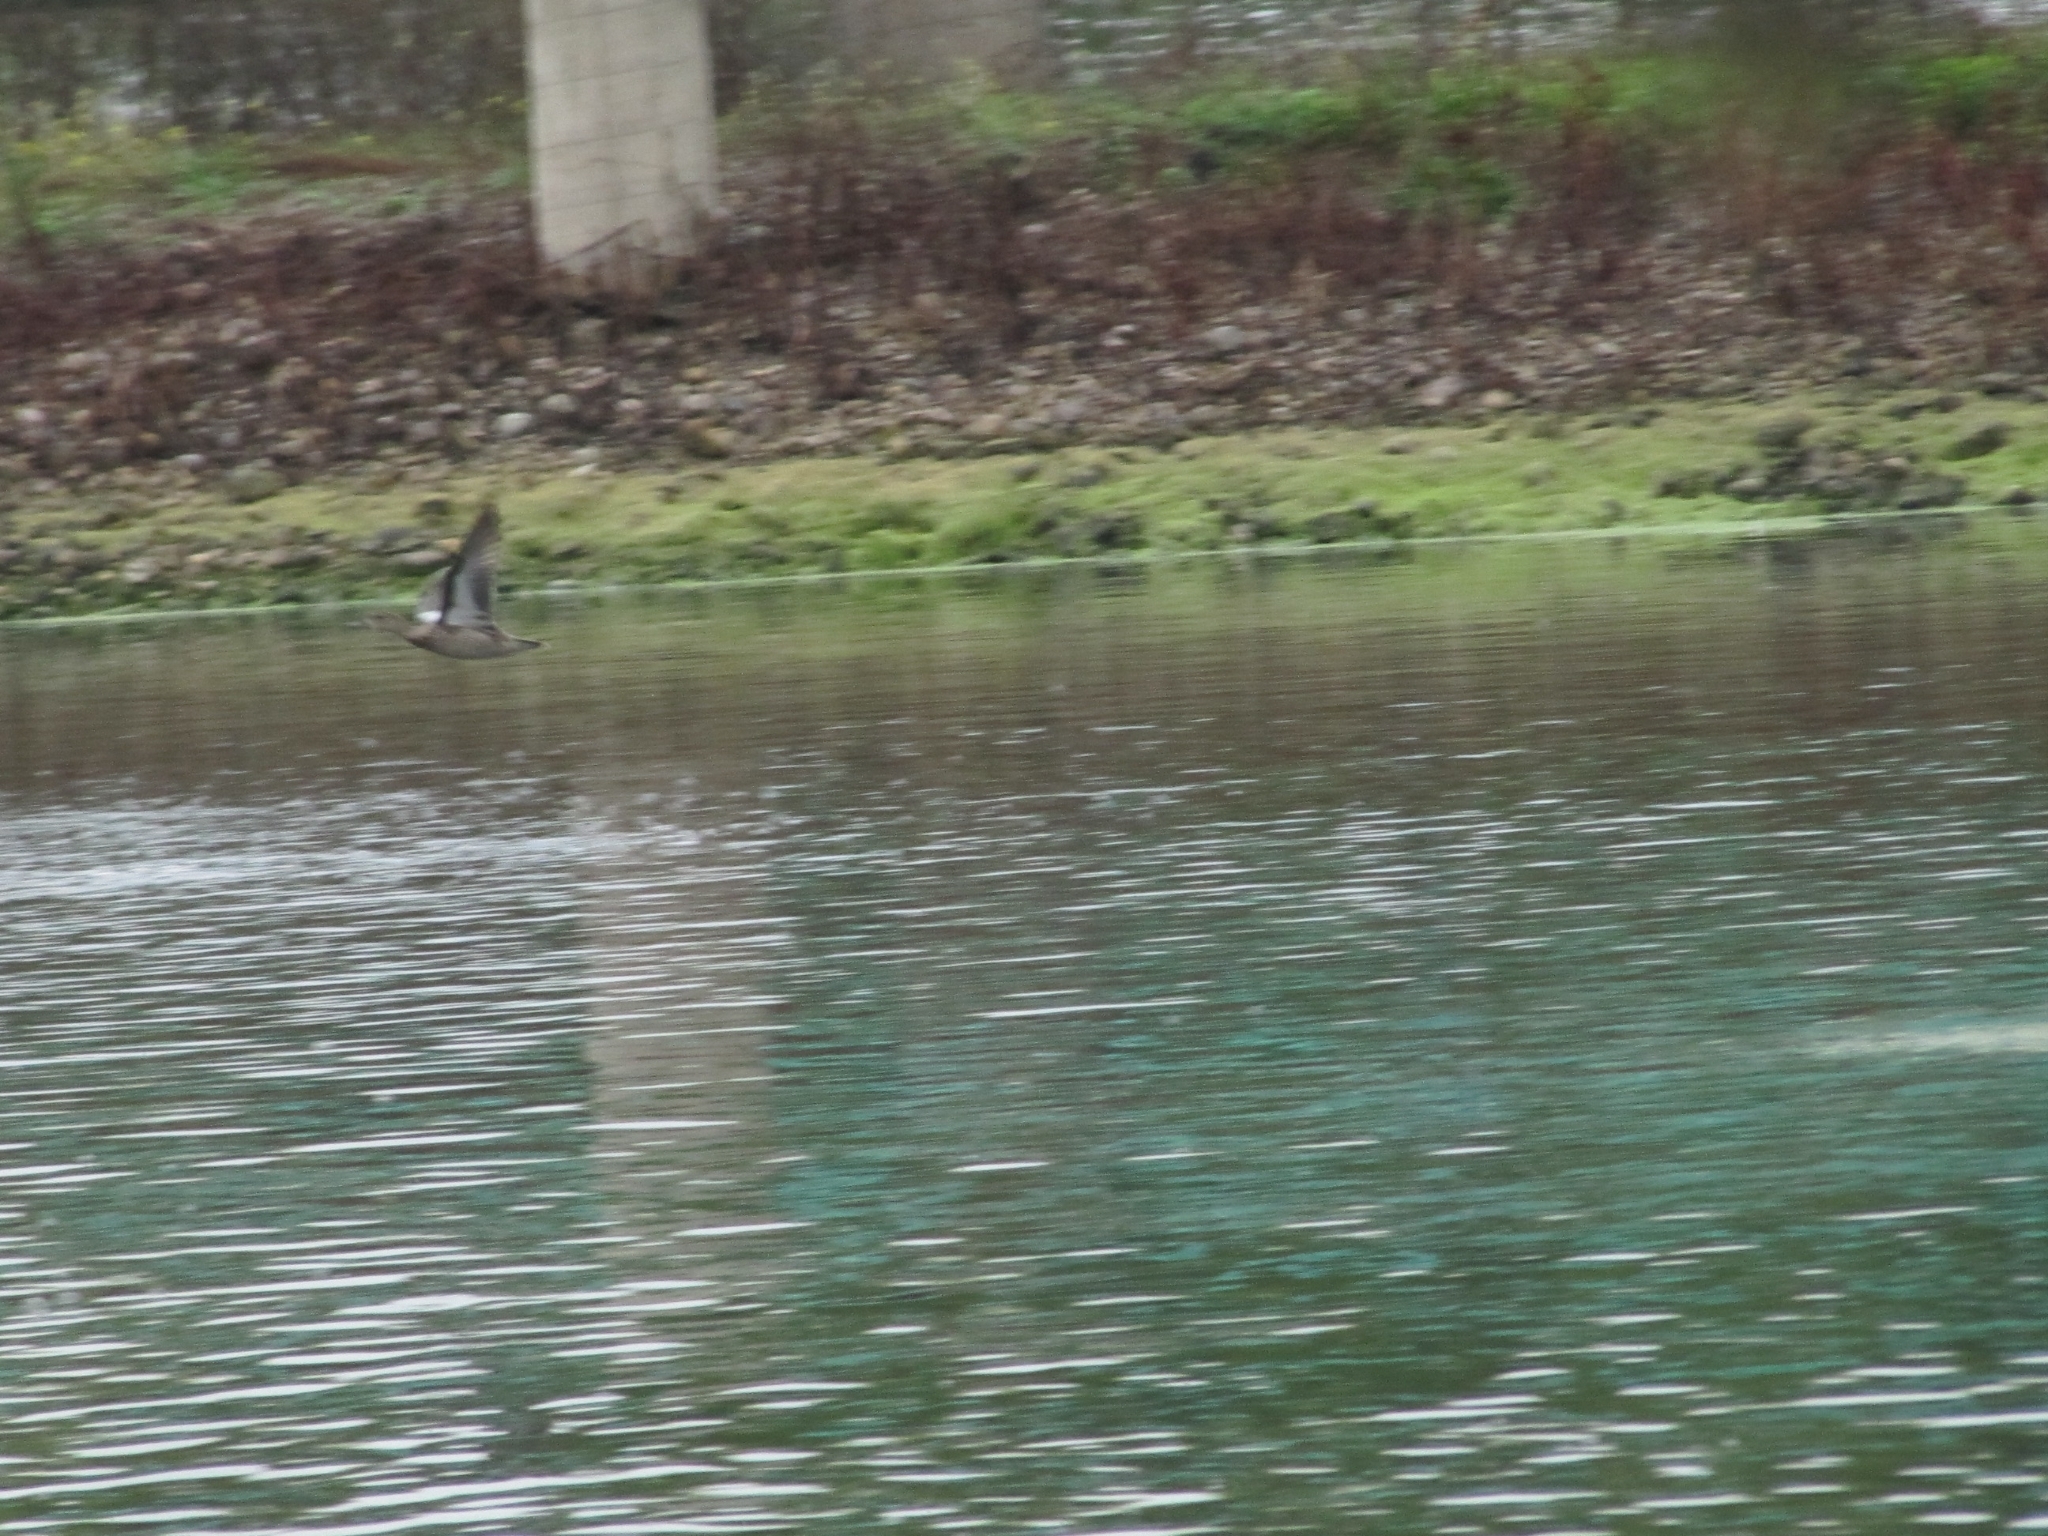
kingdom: Animalia
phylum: Chordata
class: Aves
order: Anseriformes
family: Anatidae
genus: Mareca
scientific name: Mareca americana
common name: American wigeon
